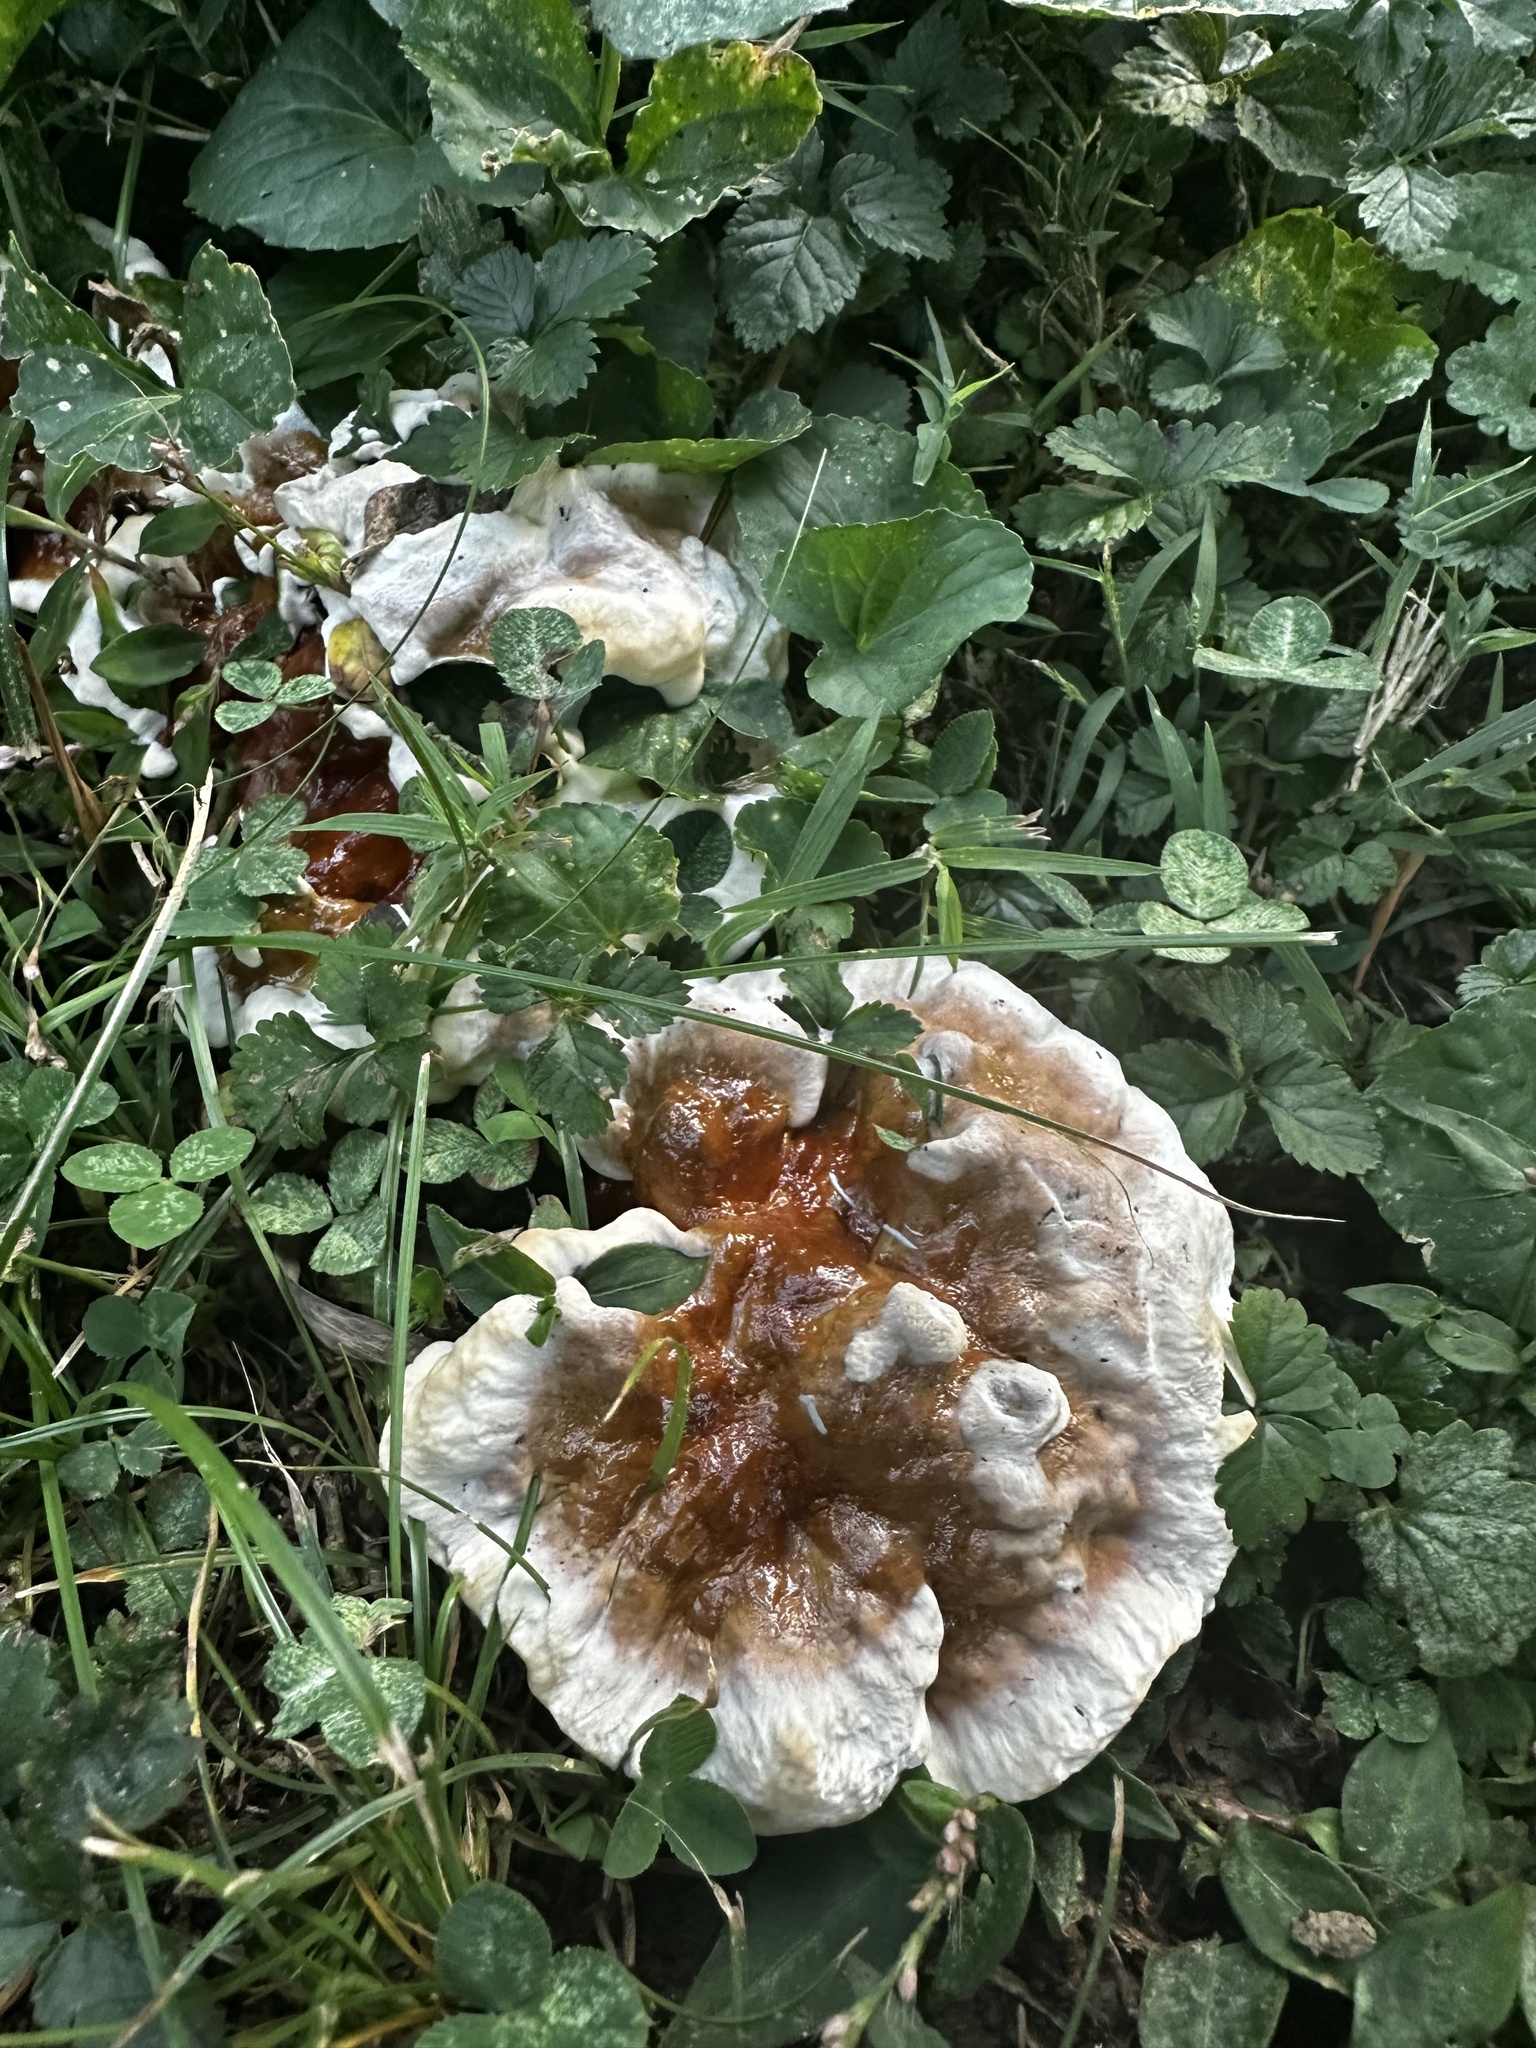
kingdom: Fungi
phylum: Basidiomycota
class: Agaricomycetes
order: Polyporales
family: Polyporaceae
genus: Ganoderma
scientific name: Ganoderma resinaceum
